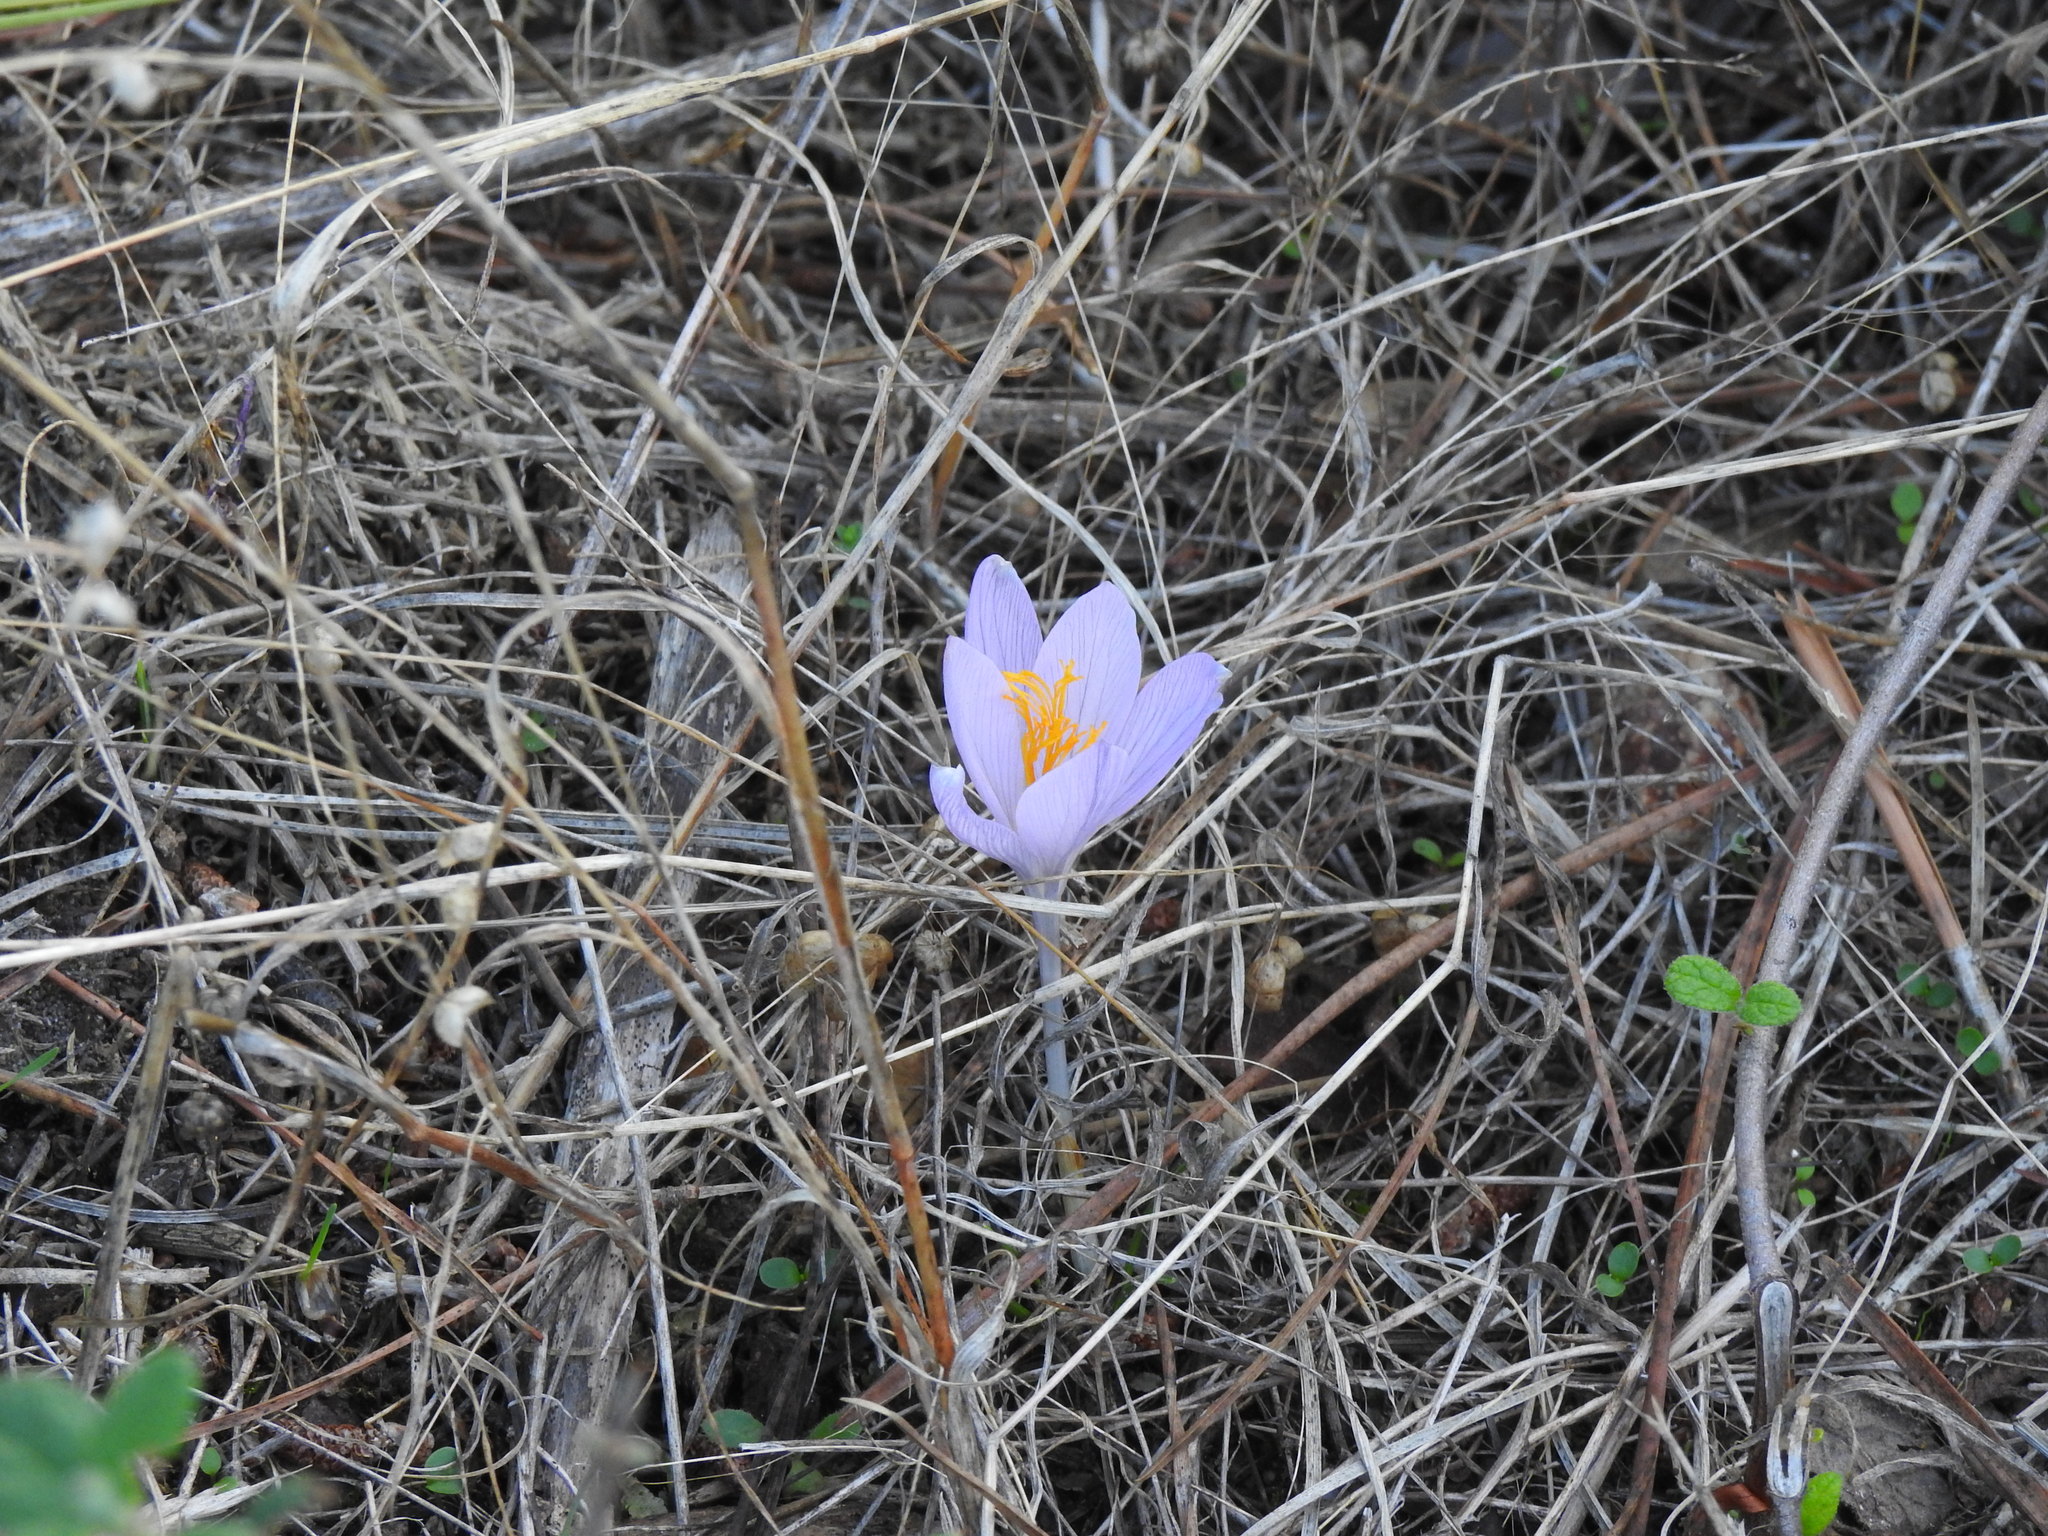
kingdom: Plantae
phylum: Tracheophyta
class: Liliopsida
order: Asparagales
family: Iridaceae
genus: Crocus
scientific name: Crocus serotinus
